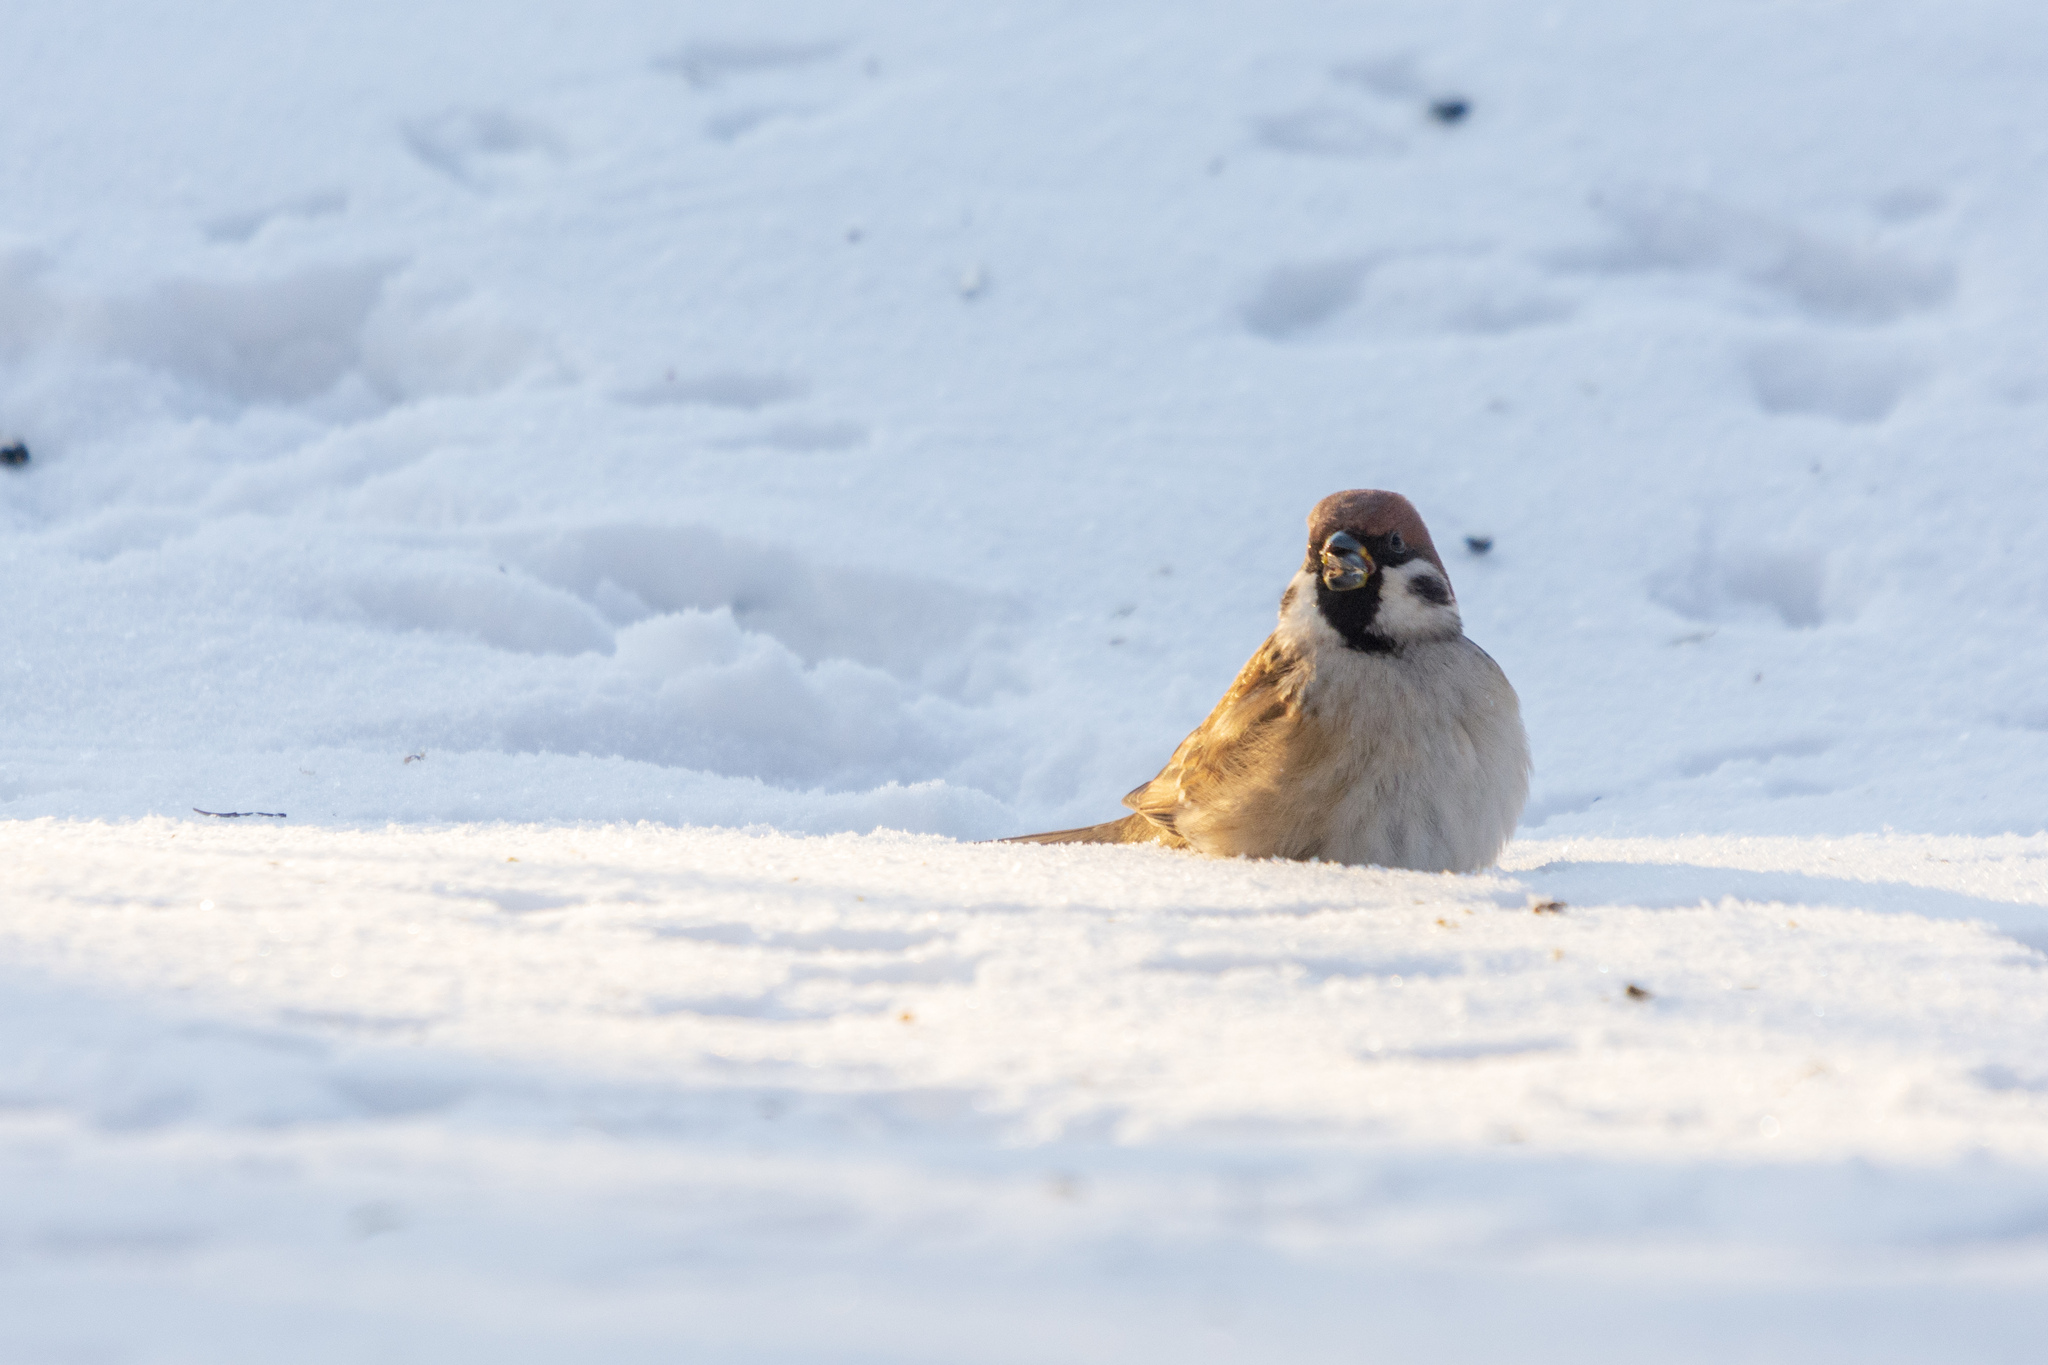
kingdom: Animalia
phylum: Chordata
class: Aves
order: Passeriformes
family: Passeridae
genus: Passer
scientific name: Passer montanus
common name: Eurasian tree sparrow
